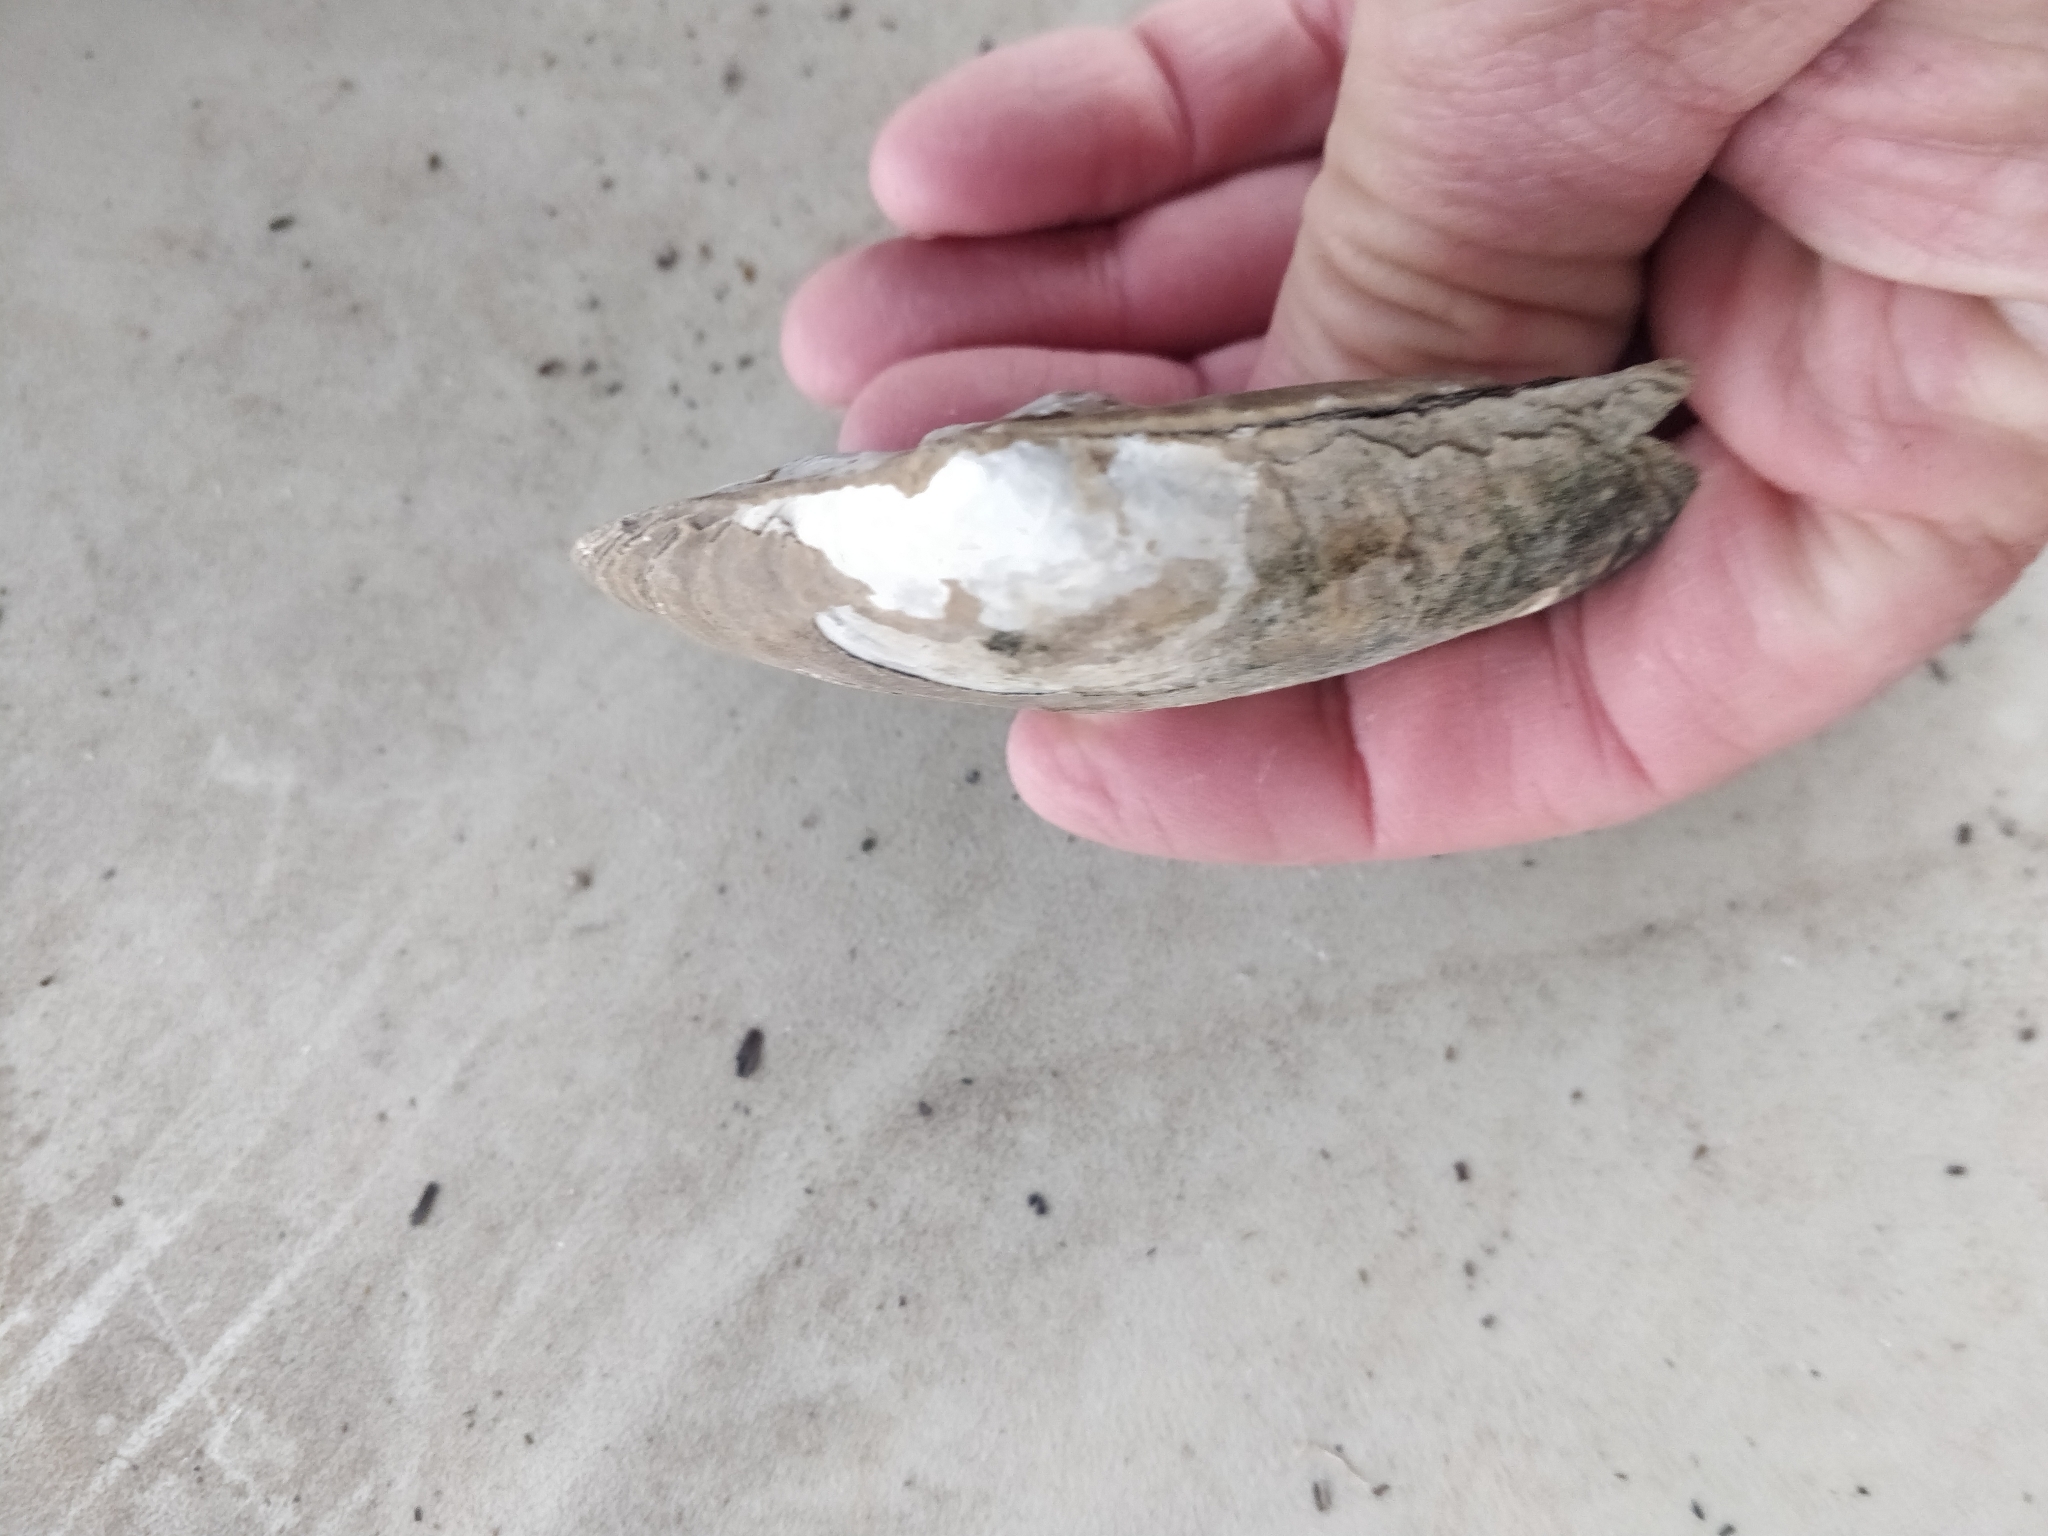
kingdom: Animalia
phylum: Mollusca
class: Bivalvia
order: Unionida
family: Unionidae
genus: Lasmigona
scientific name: Lasmigona complanata
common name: White heelsplitter
